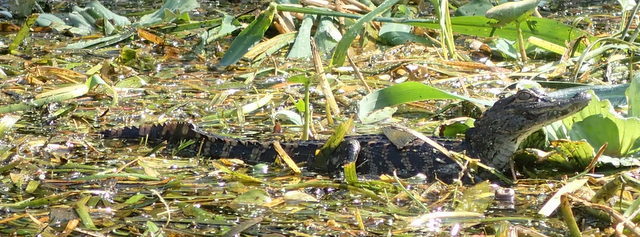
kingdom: Animalia
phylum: Chordata
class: Crocodylia
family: Alligatoridae
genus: Alligator
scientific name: Alligator mississippiensis
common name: American alligator
